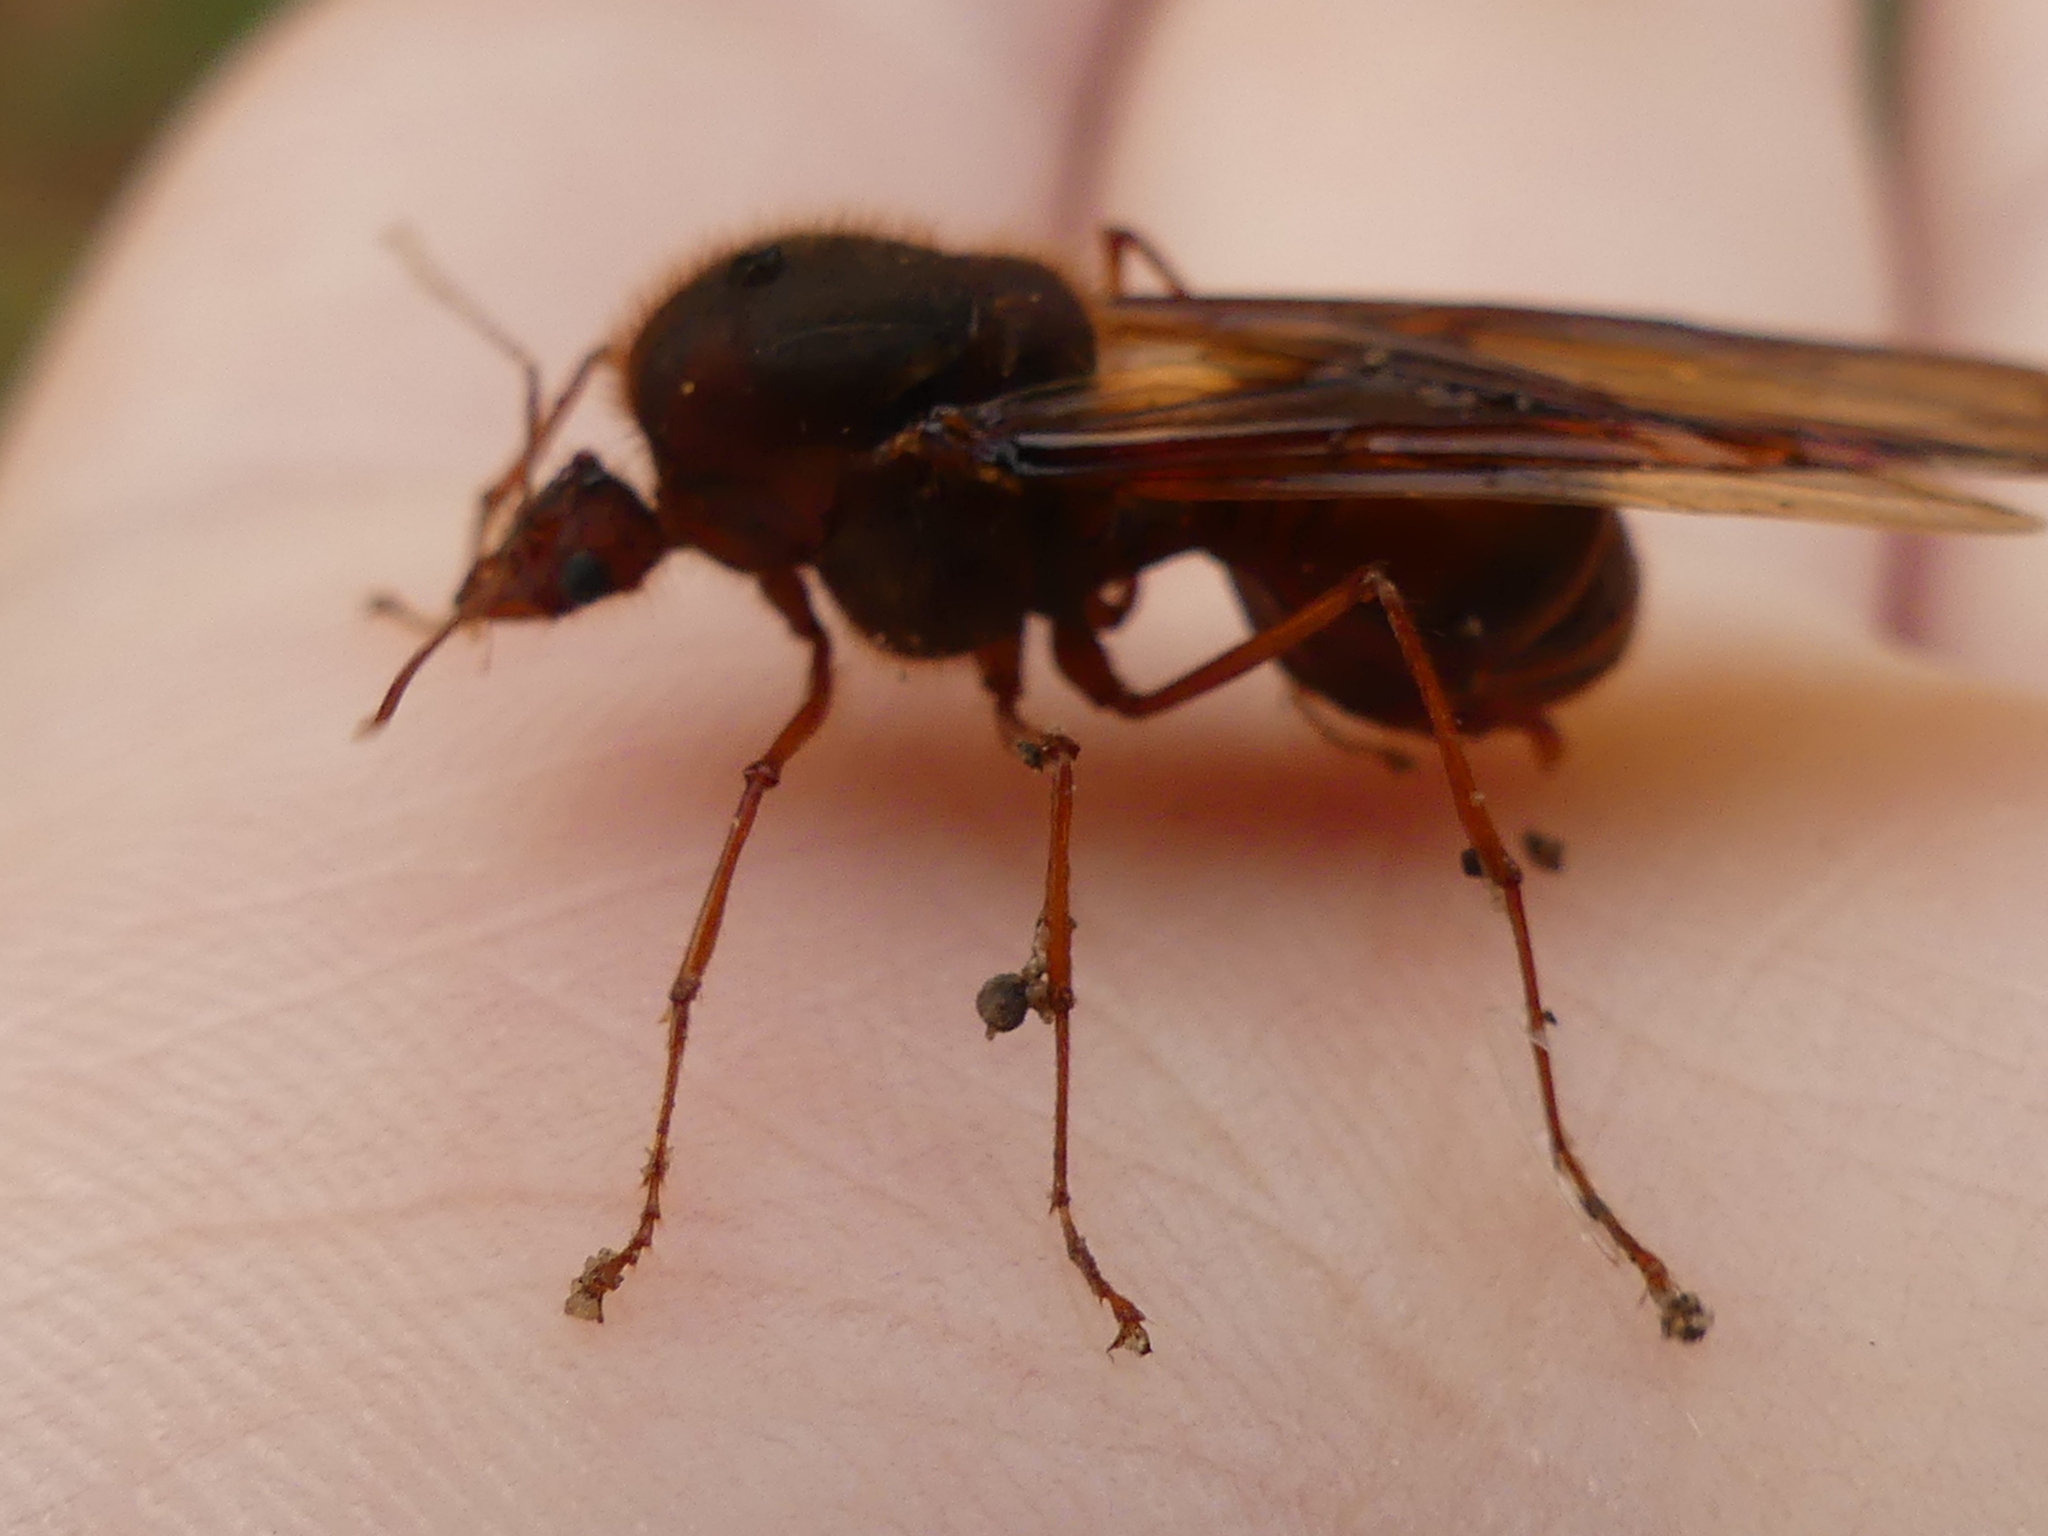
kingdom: Animalia
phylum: Arthropoda
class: Insecta
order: Hymenoptera
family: Formicidae
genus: Atta
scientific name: Atta texana
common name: Texas leafcutting ant
